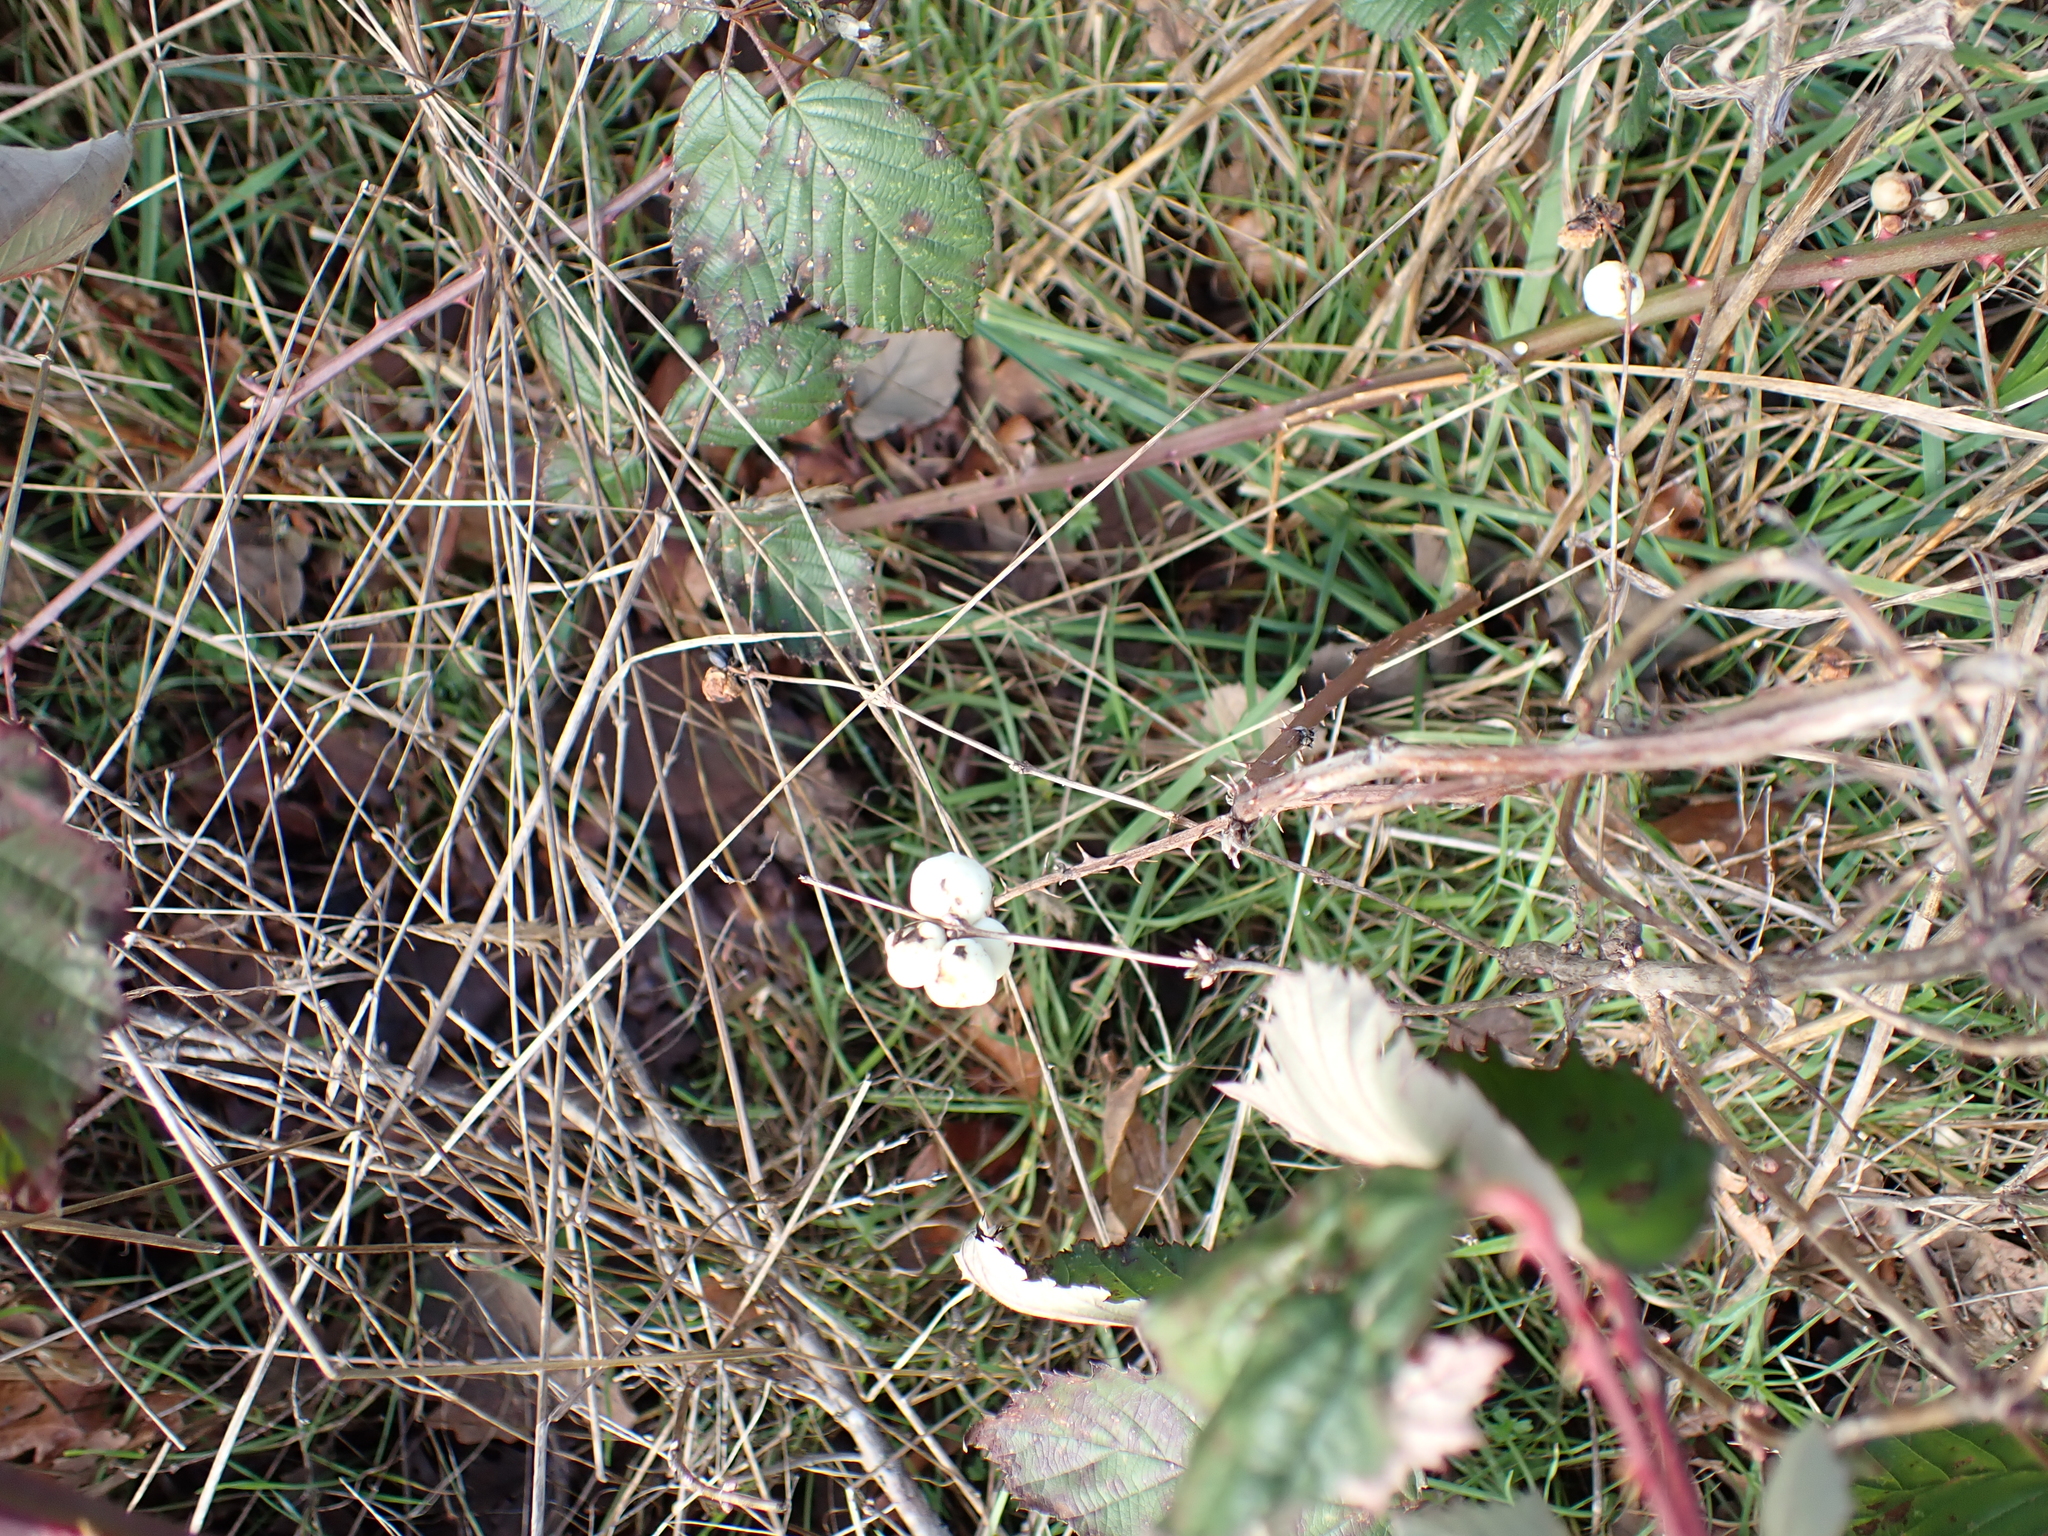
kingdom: Plantae
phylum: Tracheophyta
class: Magnoliopsida
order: Dipsacales
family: Caprifoliaceae
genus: Symphoricarpos
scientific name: Symphoricarpos albus
